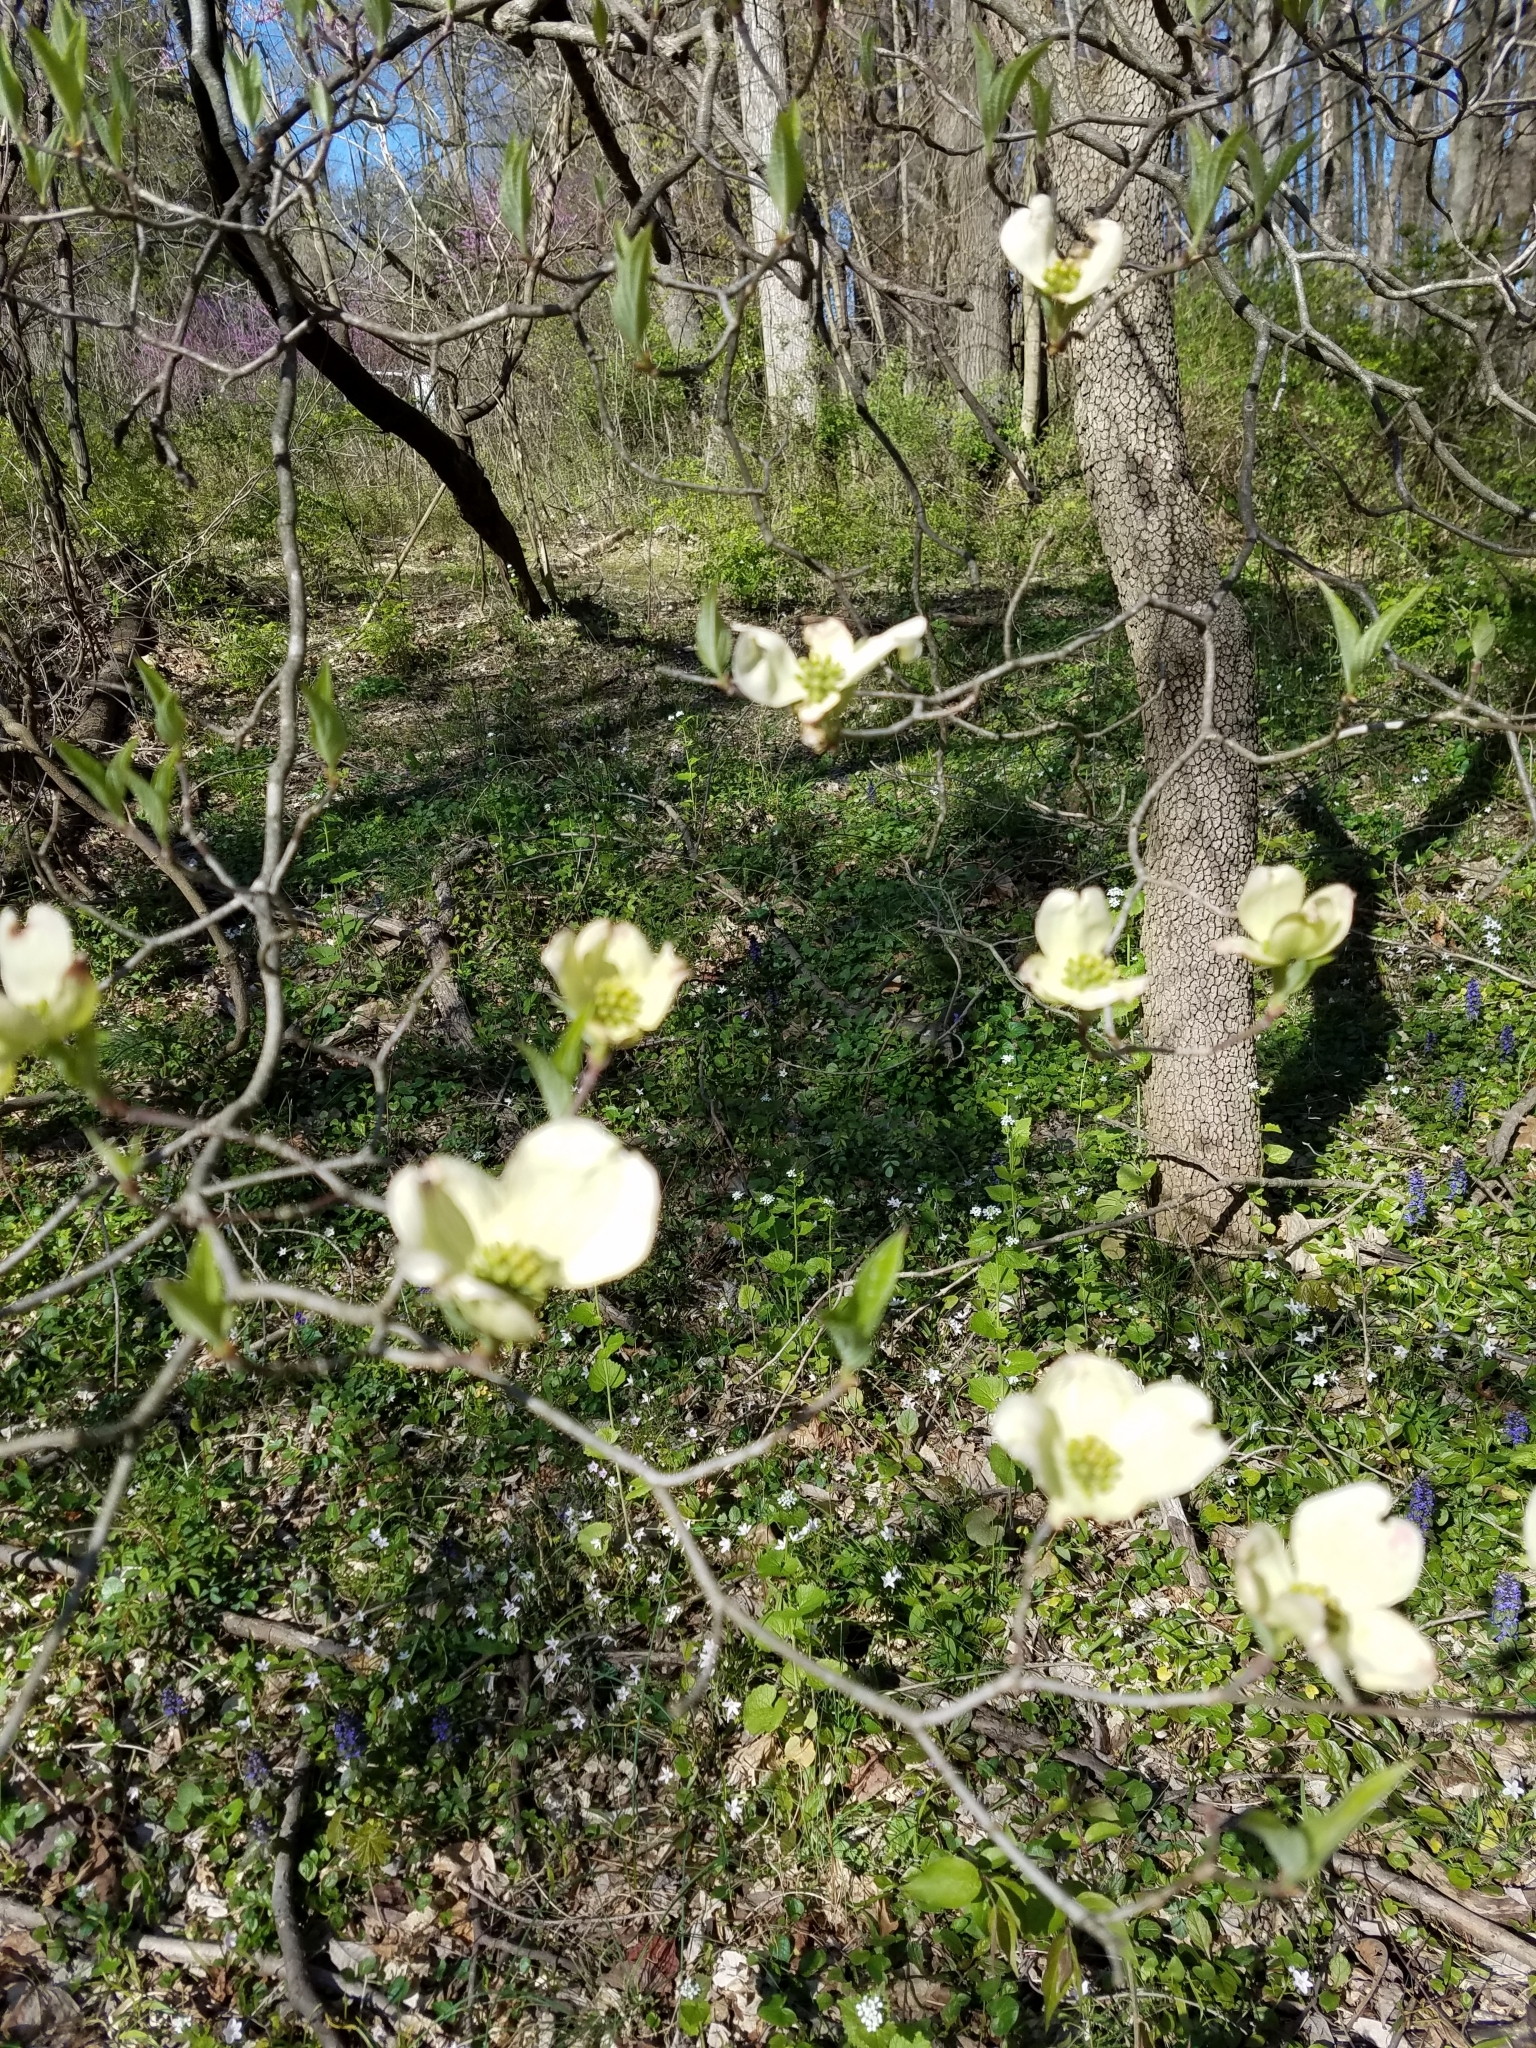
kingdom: Plantae
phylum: Tracheophyta
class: Magnoliopsida
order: Cornales
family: Cornaceae
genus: Cornus
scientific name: Cornus florida
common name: Flowering dogwood
